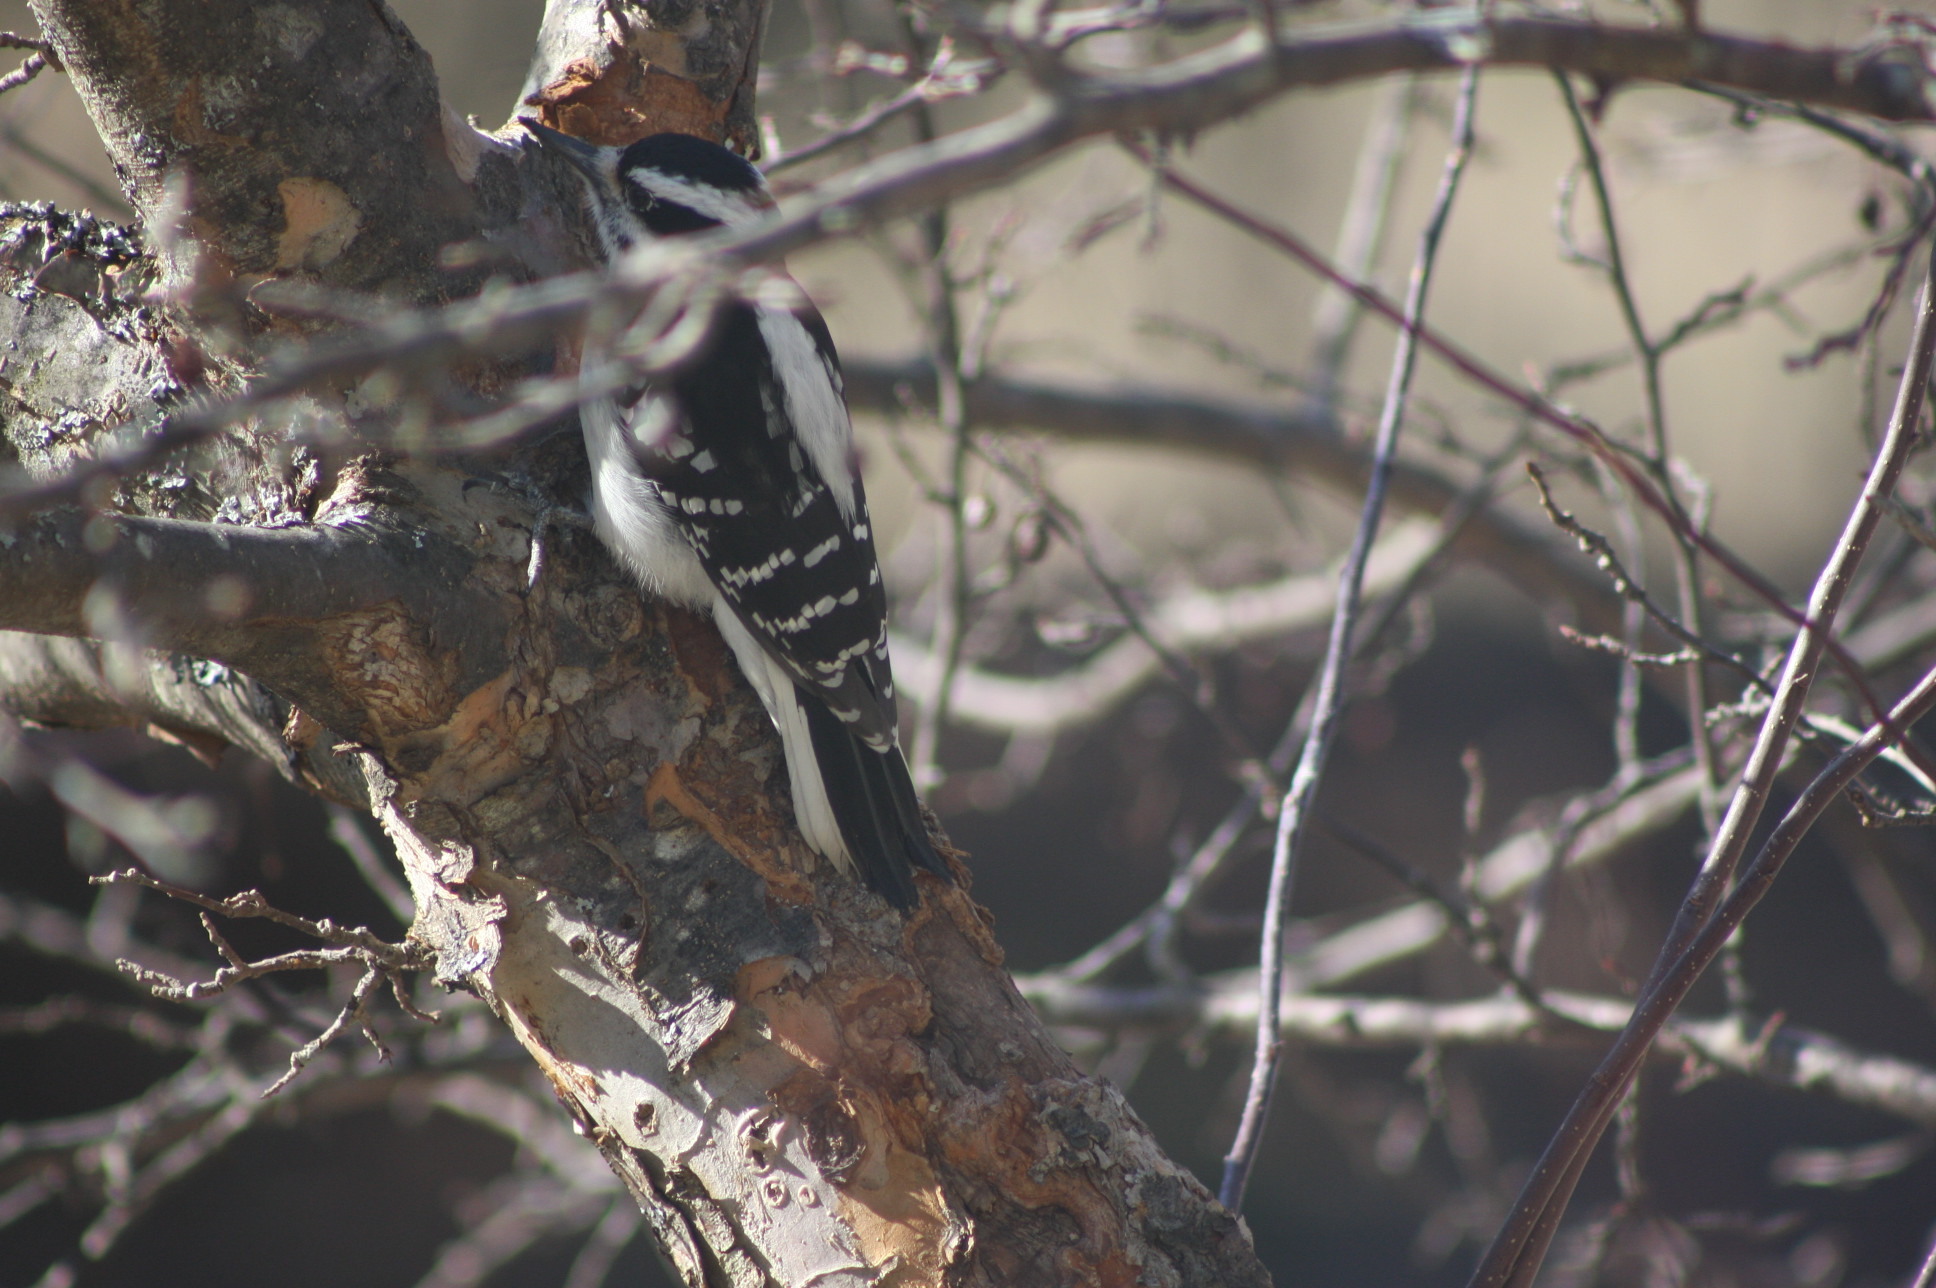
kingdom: Animalia
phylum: Chordata
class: Aves
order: Piciformes
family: Picidae
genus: Leuconotopicus
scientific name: Leuconotopicus villosus
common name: Hairy woodpecker
